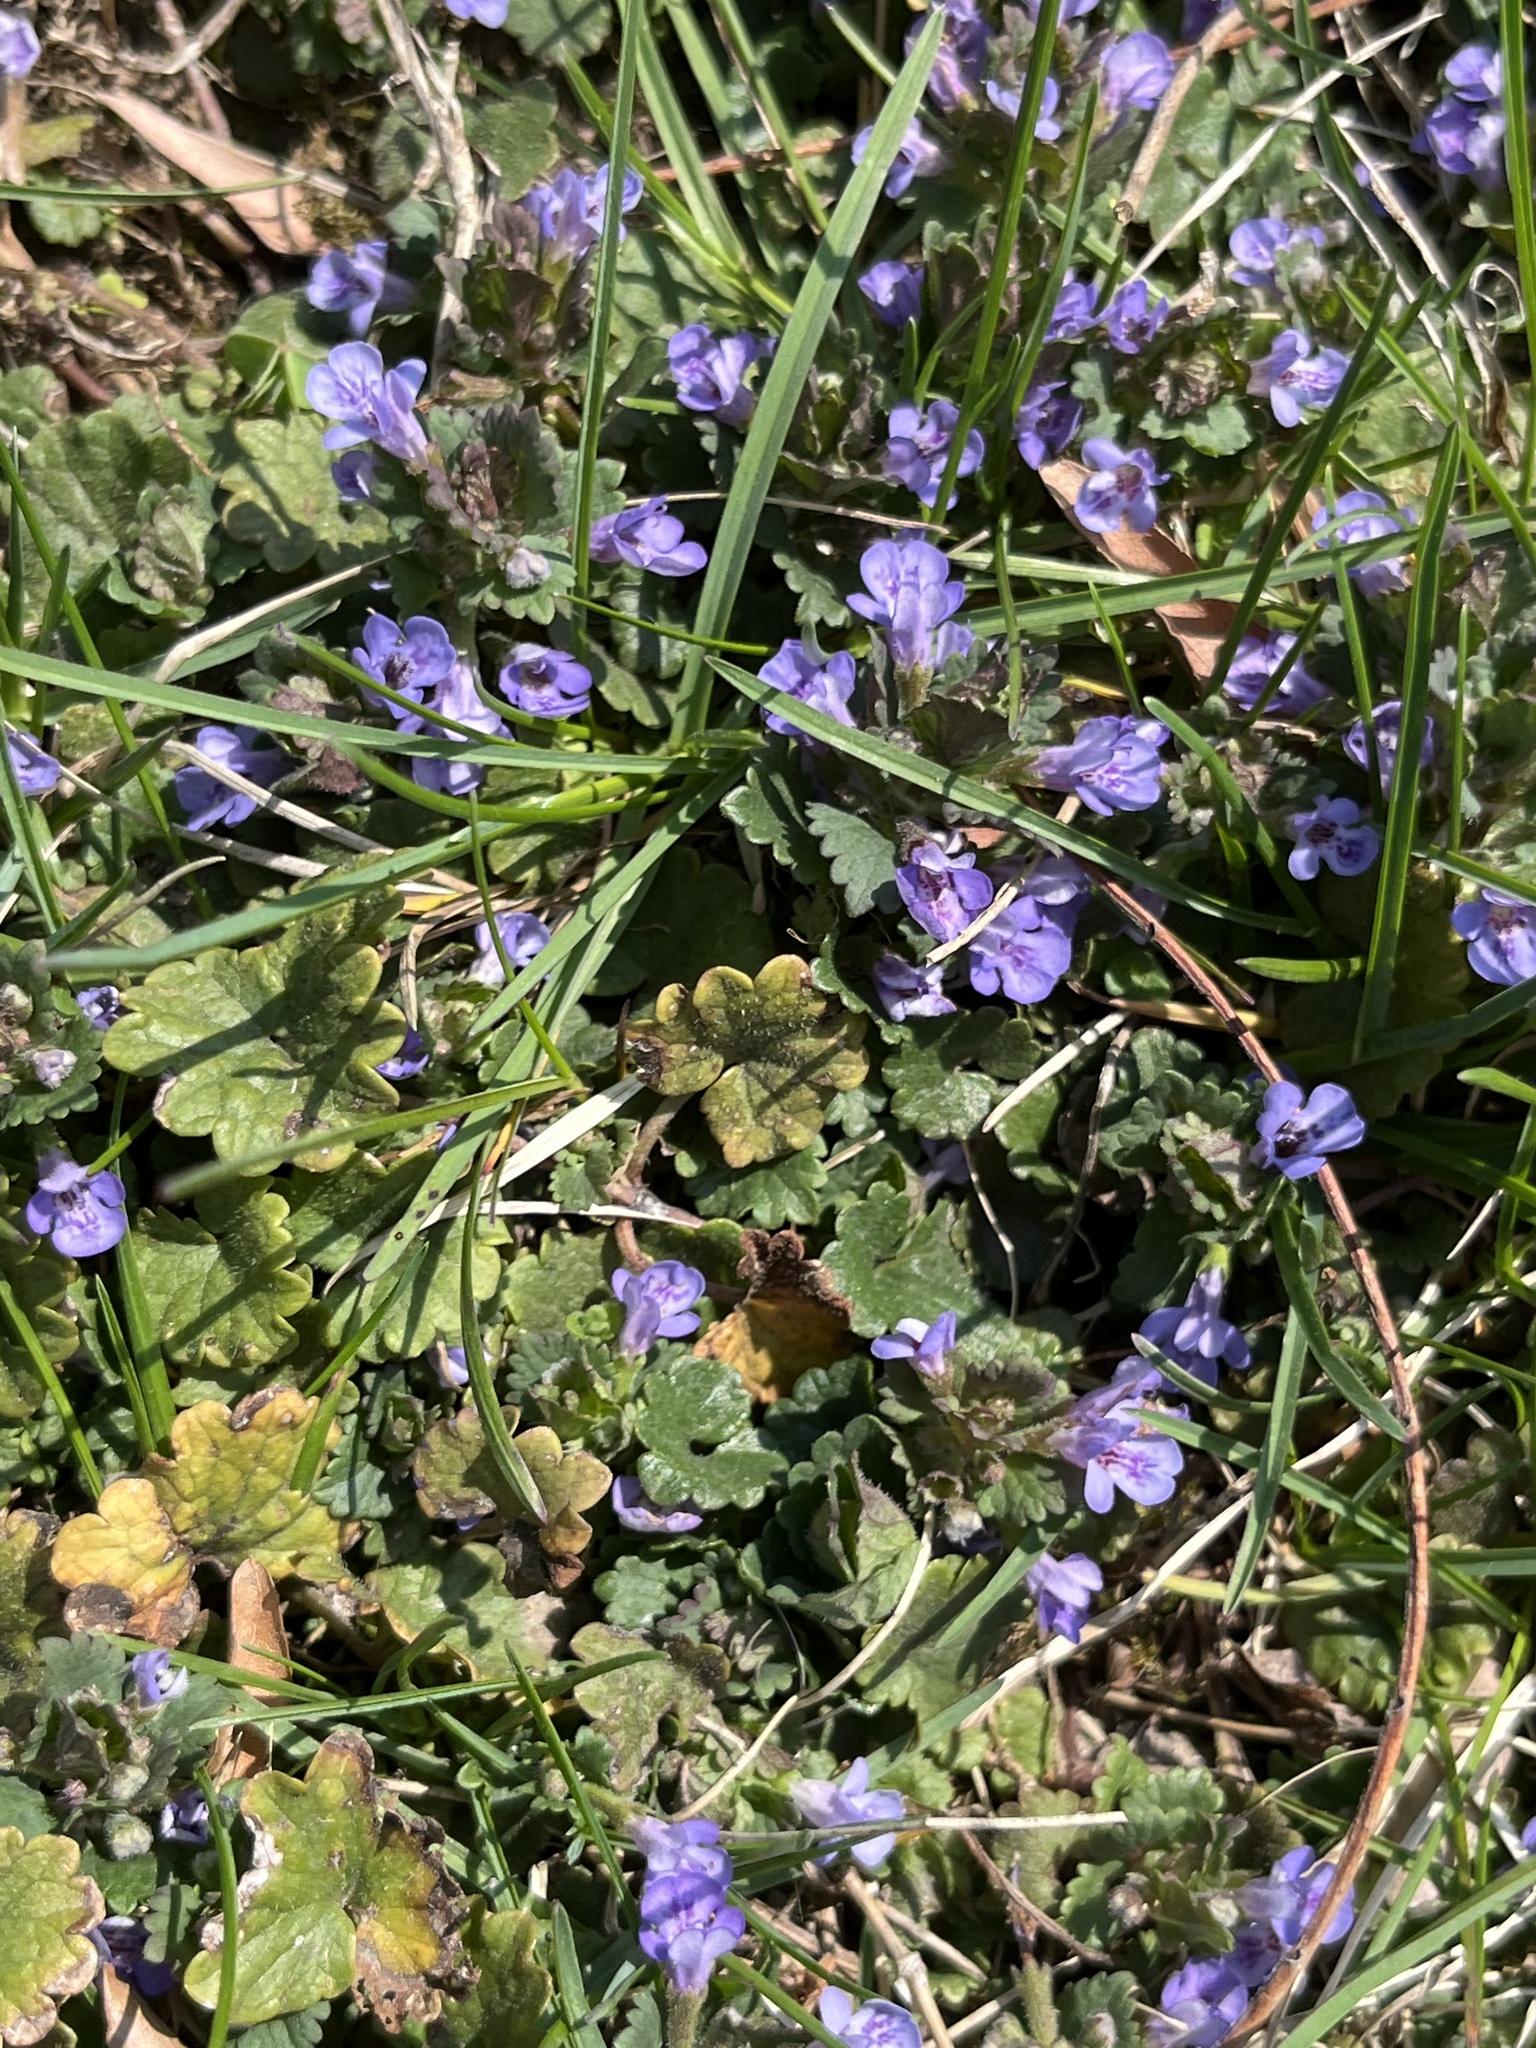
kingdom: Plantae
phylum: Tracheophyta
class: Magnoliopsida
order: Lamiales
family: Lamiaceae
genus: Glechoma
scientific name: Glechoma hederacea
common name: Ground ivy
